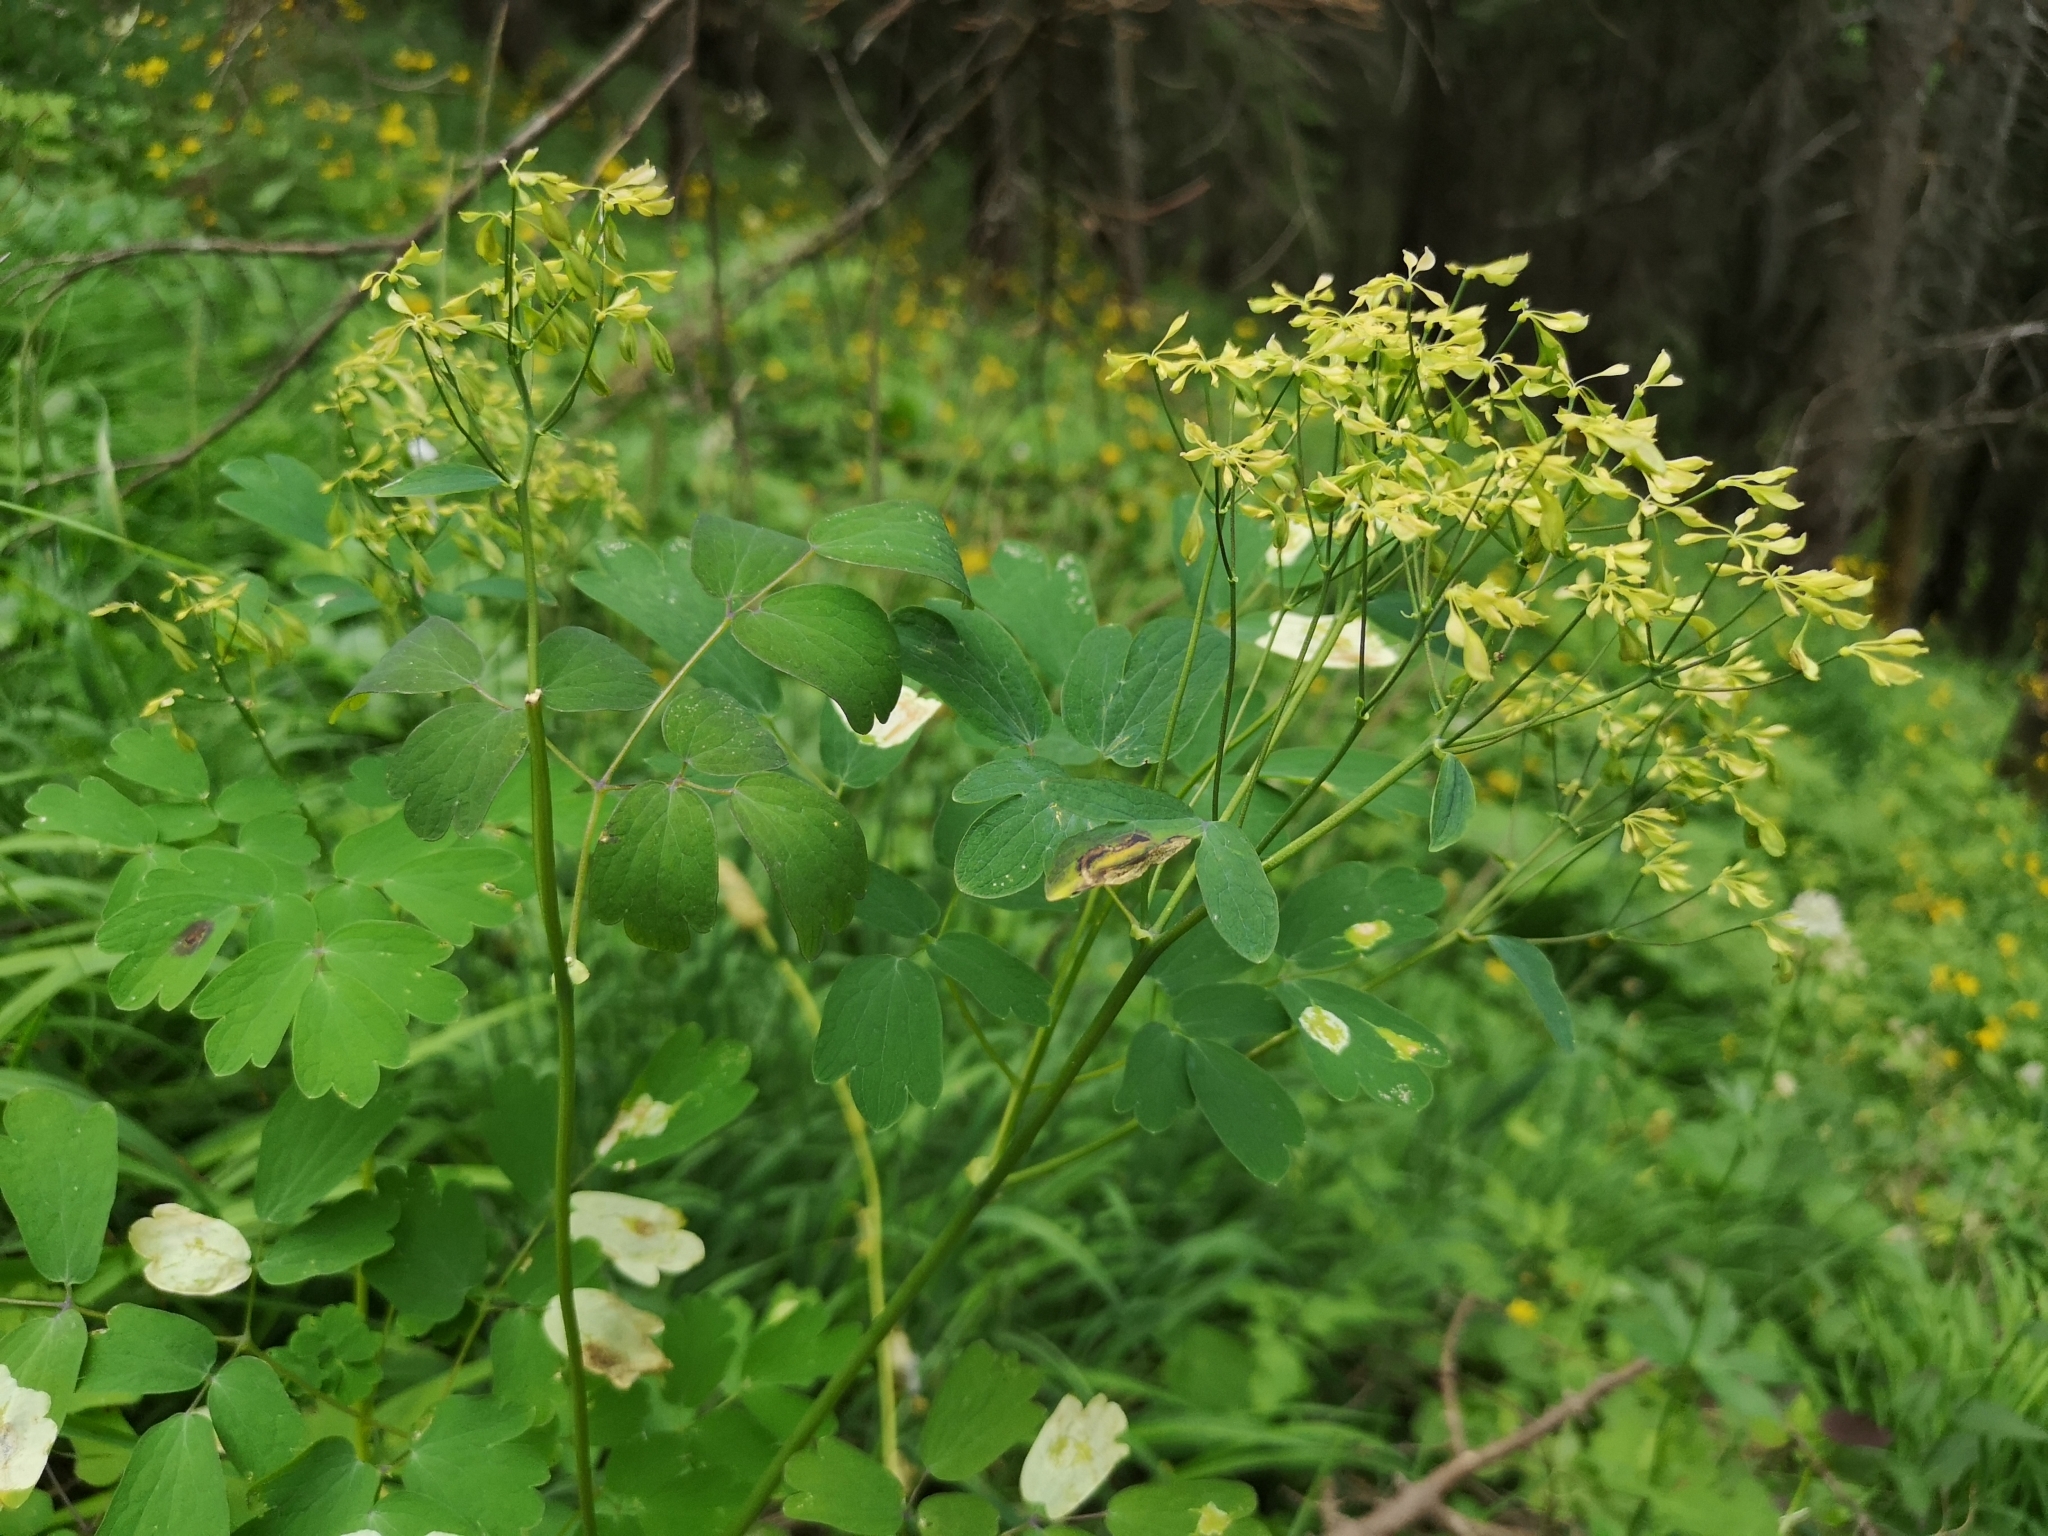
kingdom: Plantae
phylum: Tracheophyta
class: Magnoliopsida
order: Ranunculales
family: Ranunculaceae
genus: Thalictrum
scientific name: Thalictrum aquilegiifolium
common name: French meadow-rue
